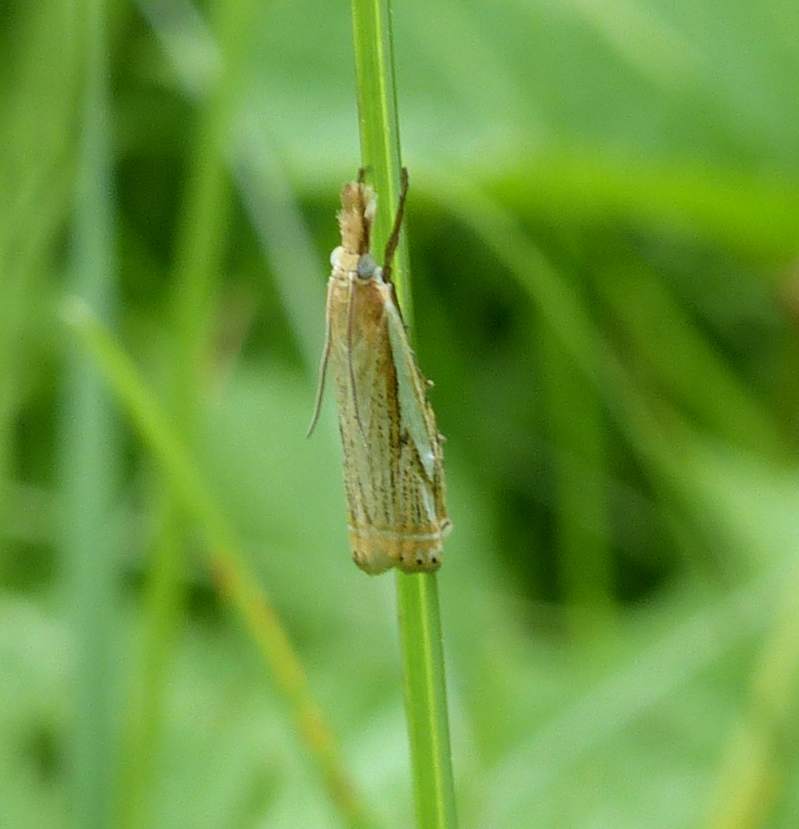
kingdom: Animalia
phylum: Arthropoda
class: Insecta
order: Lepidoptera
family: Crambidae
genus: Crambus
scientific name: Crambus saltuellus
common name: Pasture grass-veneer
